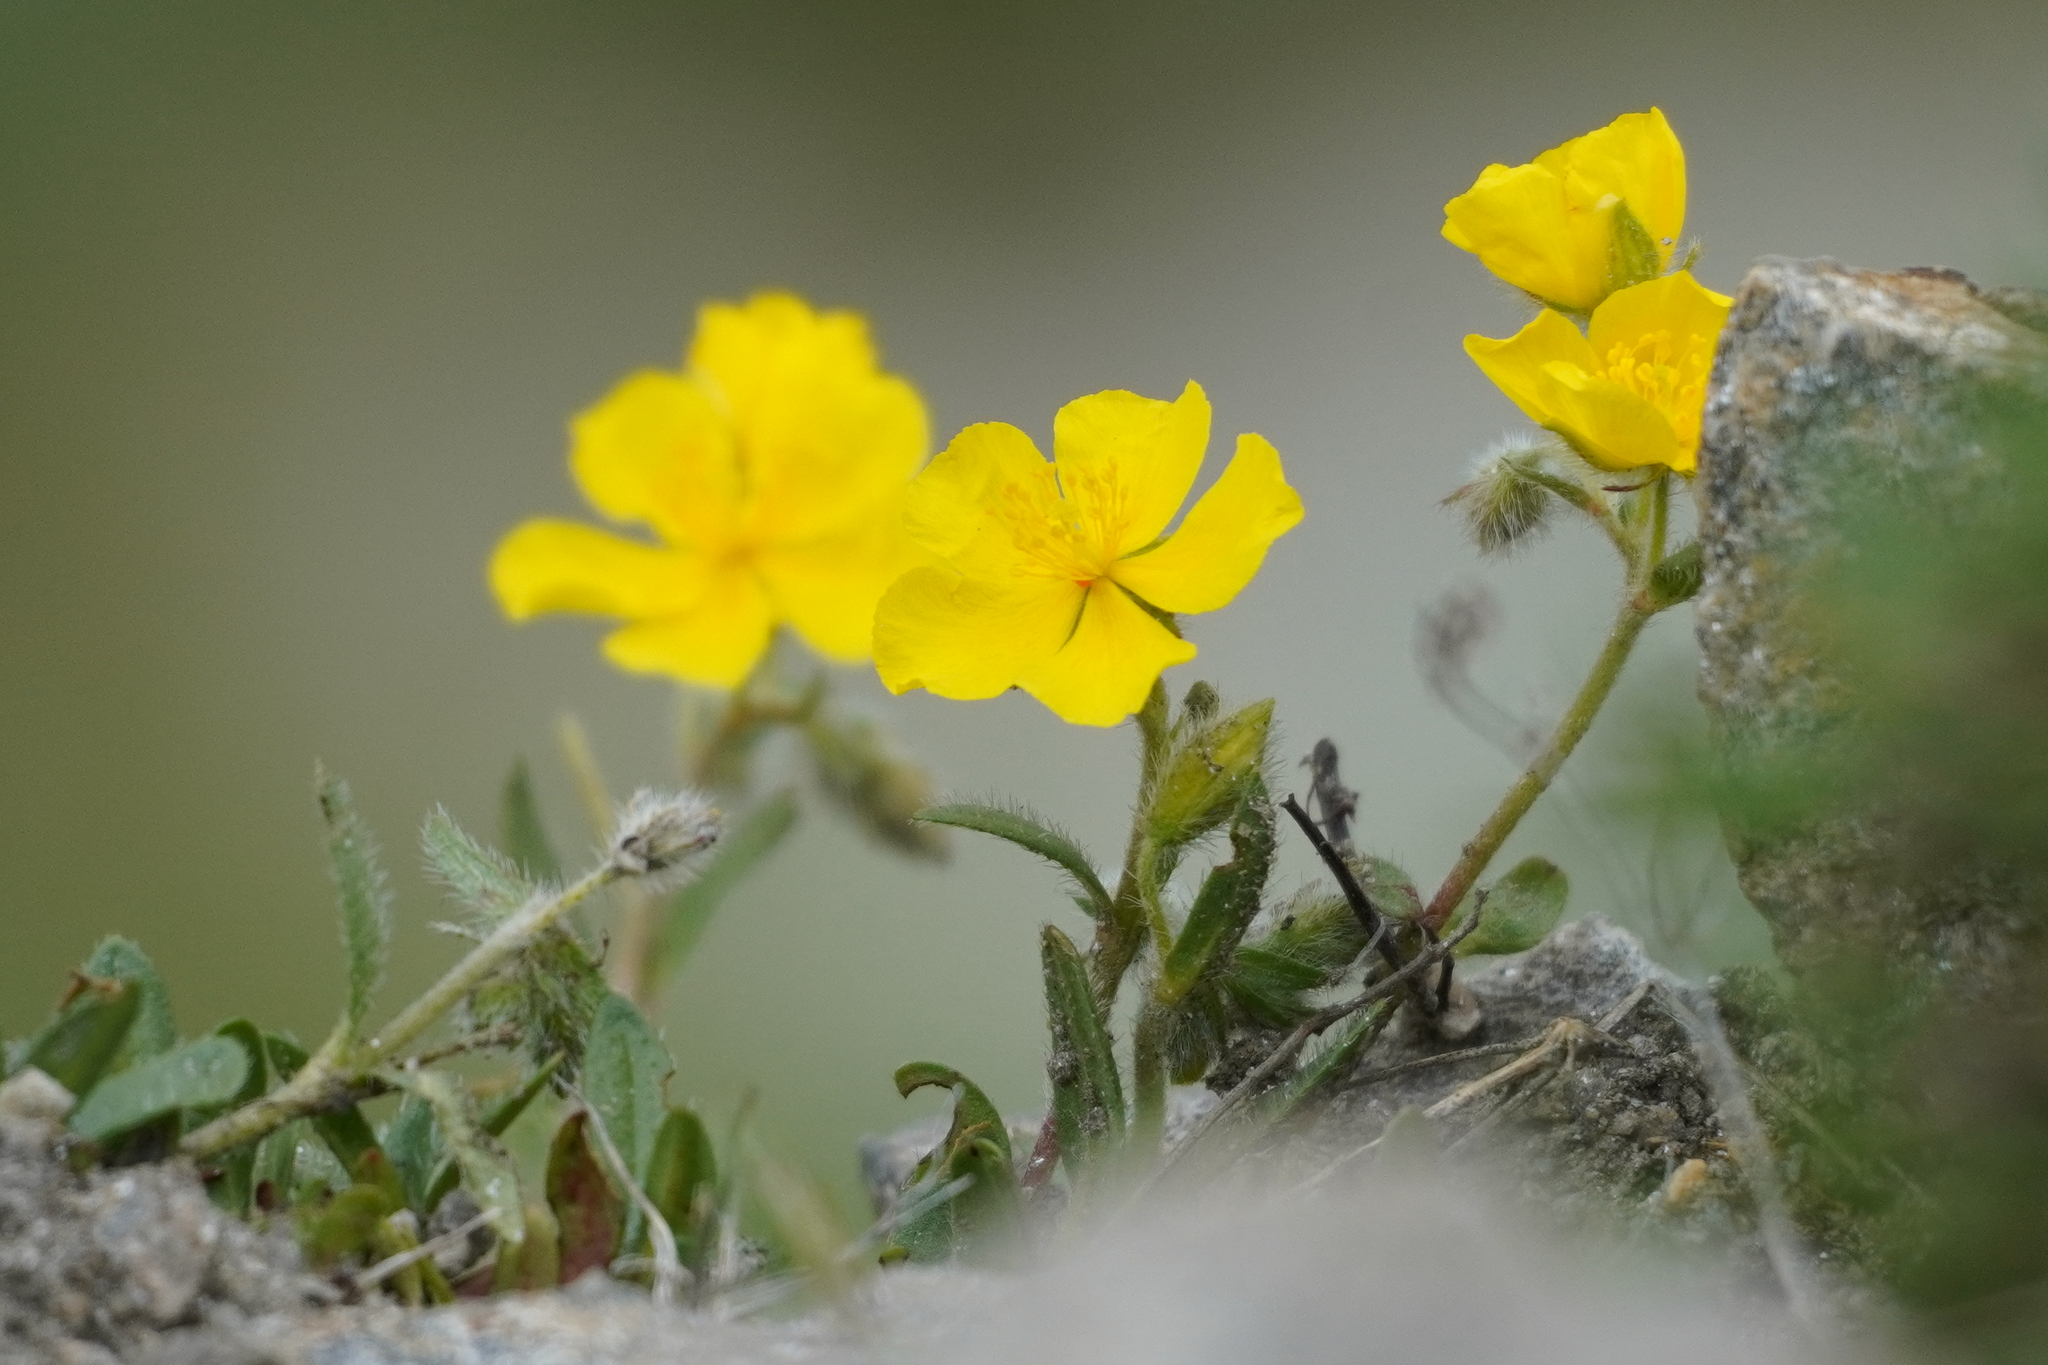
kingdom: Plantae
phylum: Tracheophyta
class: Magnoliopsida
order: Malvales
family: Cistaceae
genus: Helianthemum
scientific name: Helianthemum alpestre
